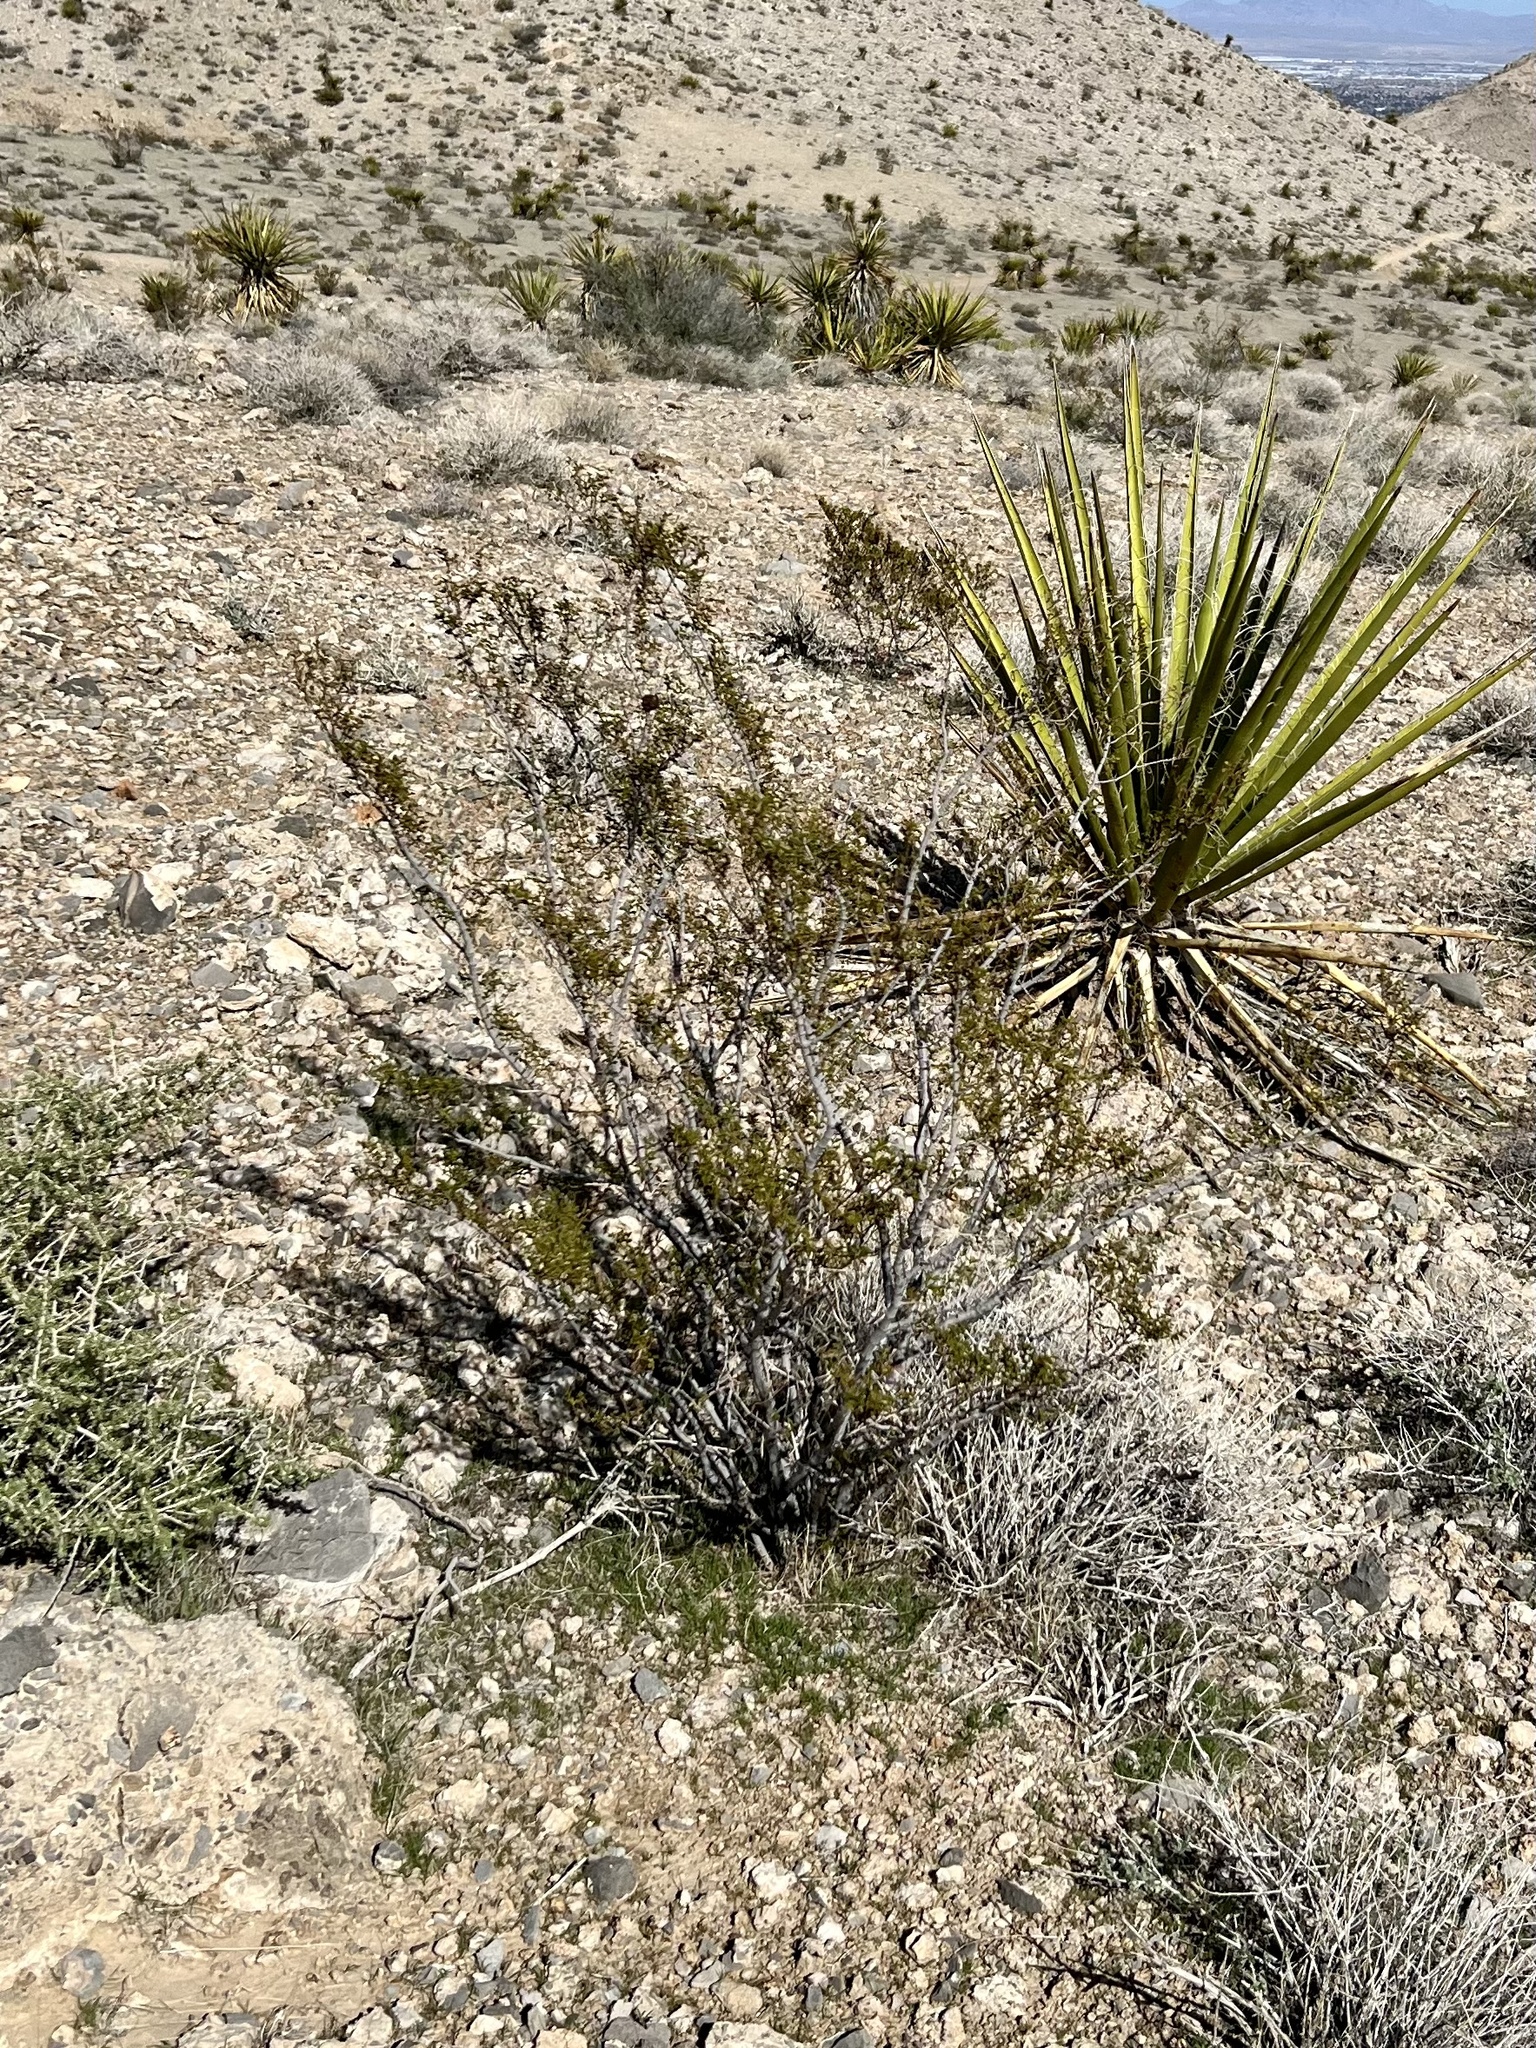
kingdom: Plantae
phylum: Tracheophyta
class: Magnoliopsida
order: Zygophyllales
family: Zygophyllaceae
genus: Larrea
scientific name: Larrea tridentata
